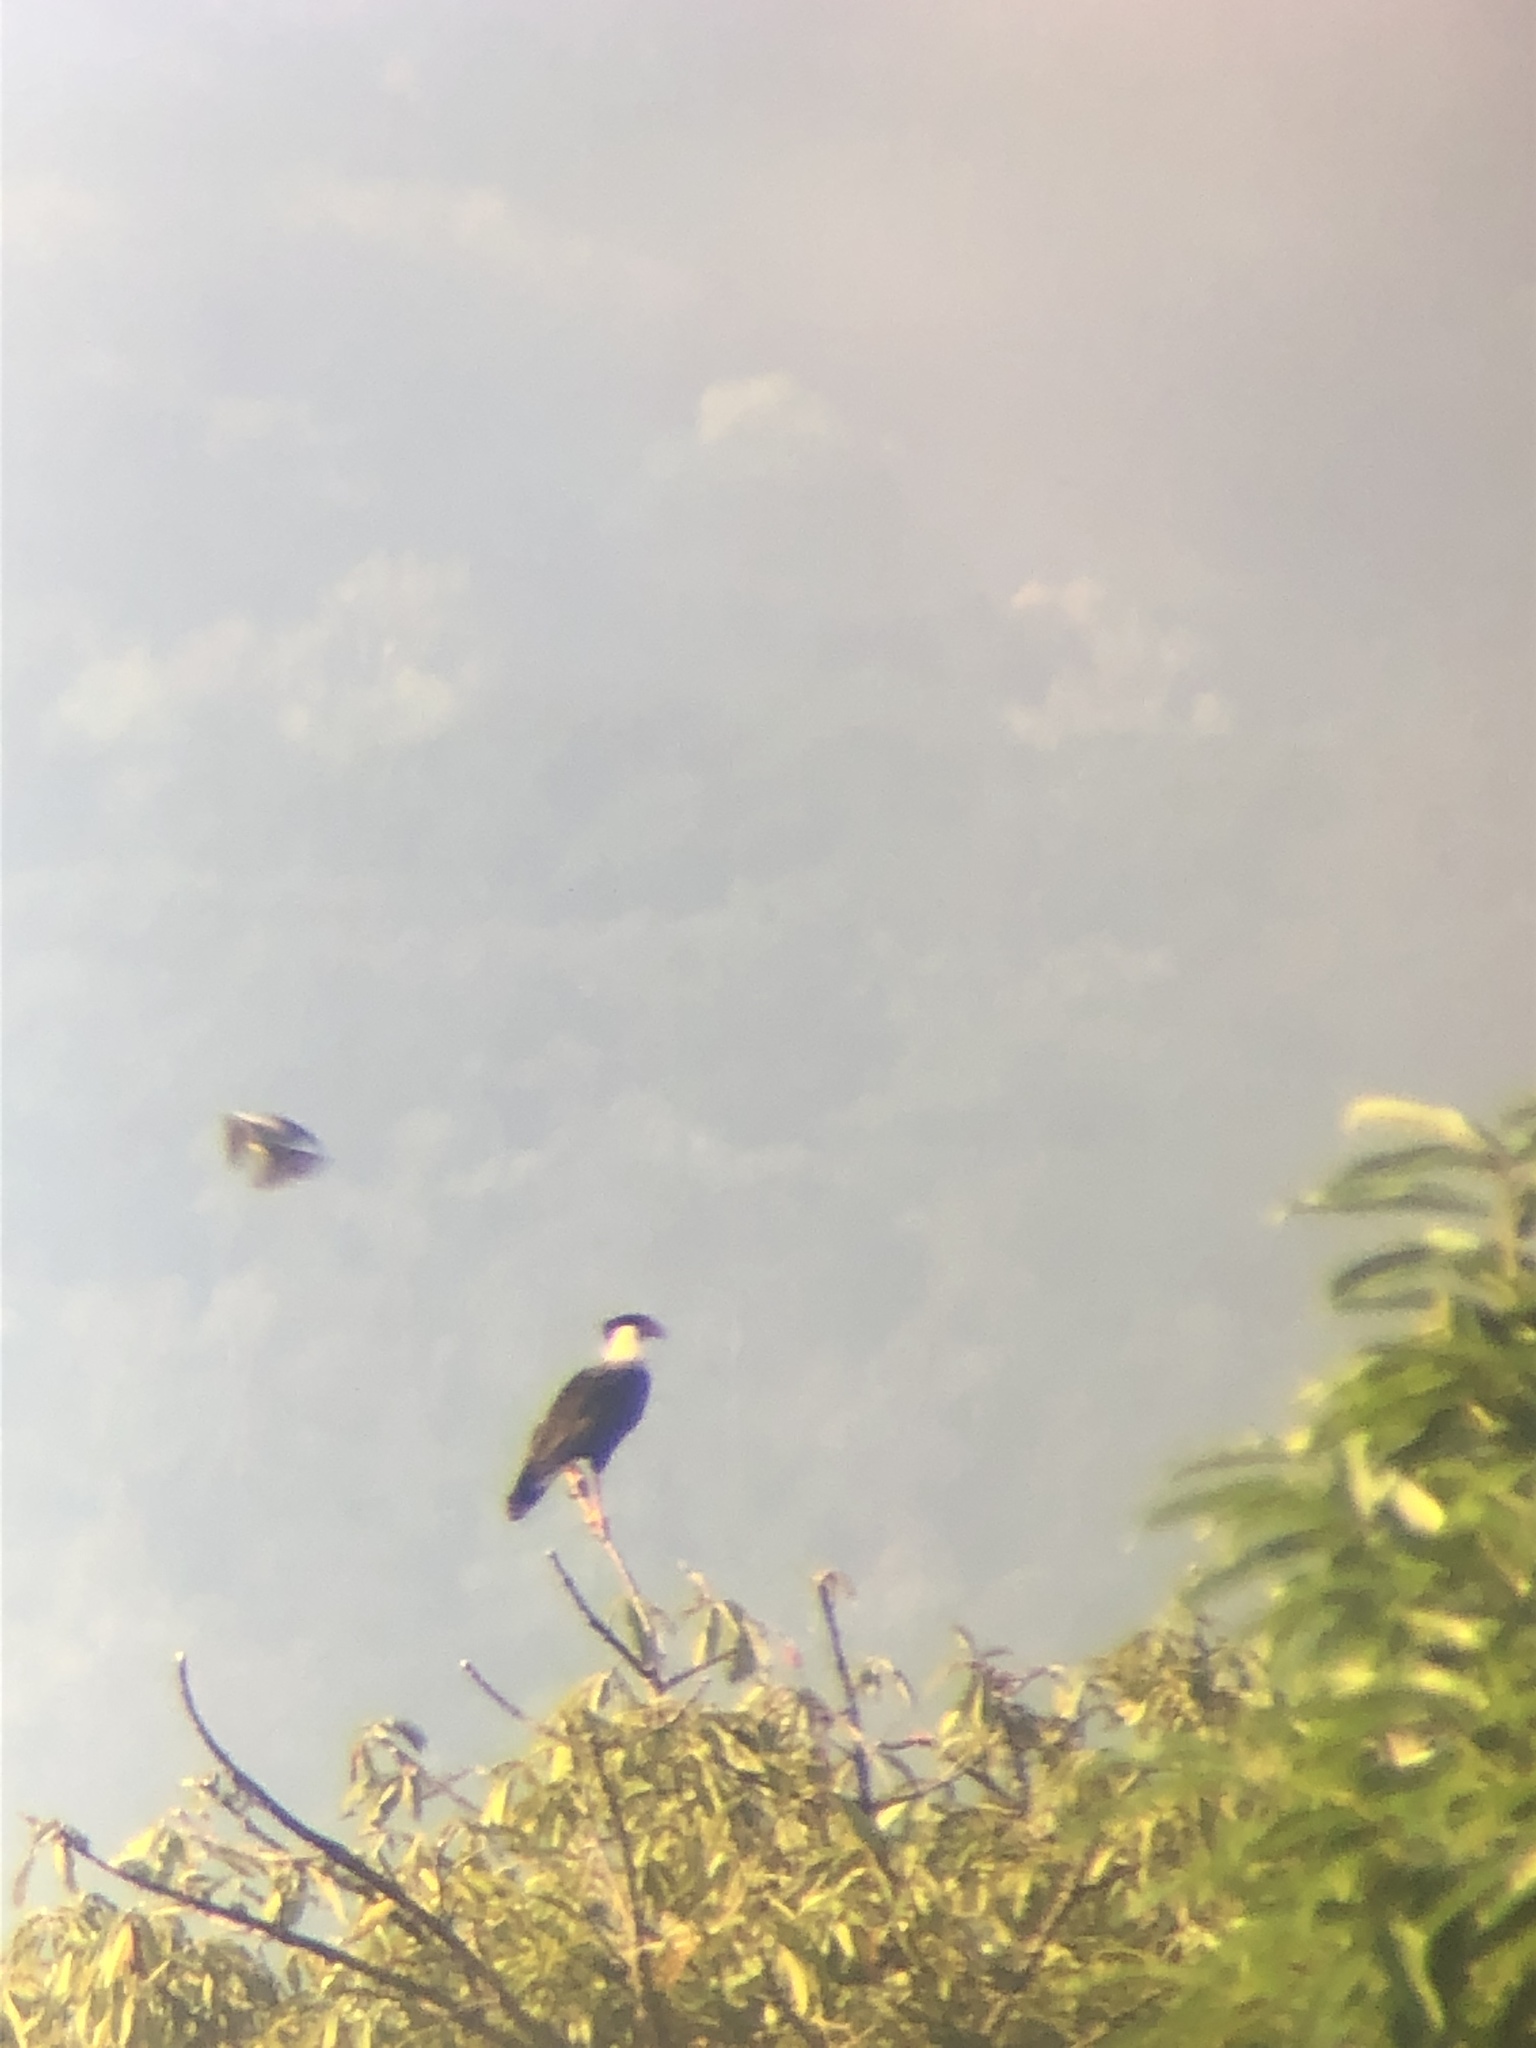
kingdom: Animalia
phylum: Chordata
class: Aves
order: Falconiformes
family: Falconidae
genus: Caracara
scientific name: Caracara plancus
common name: Southern caracara
